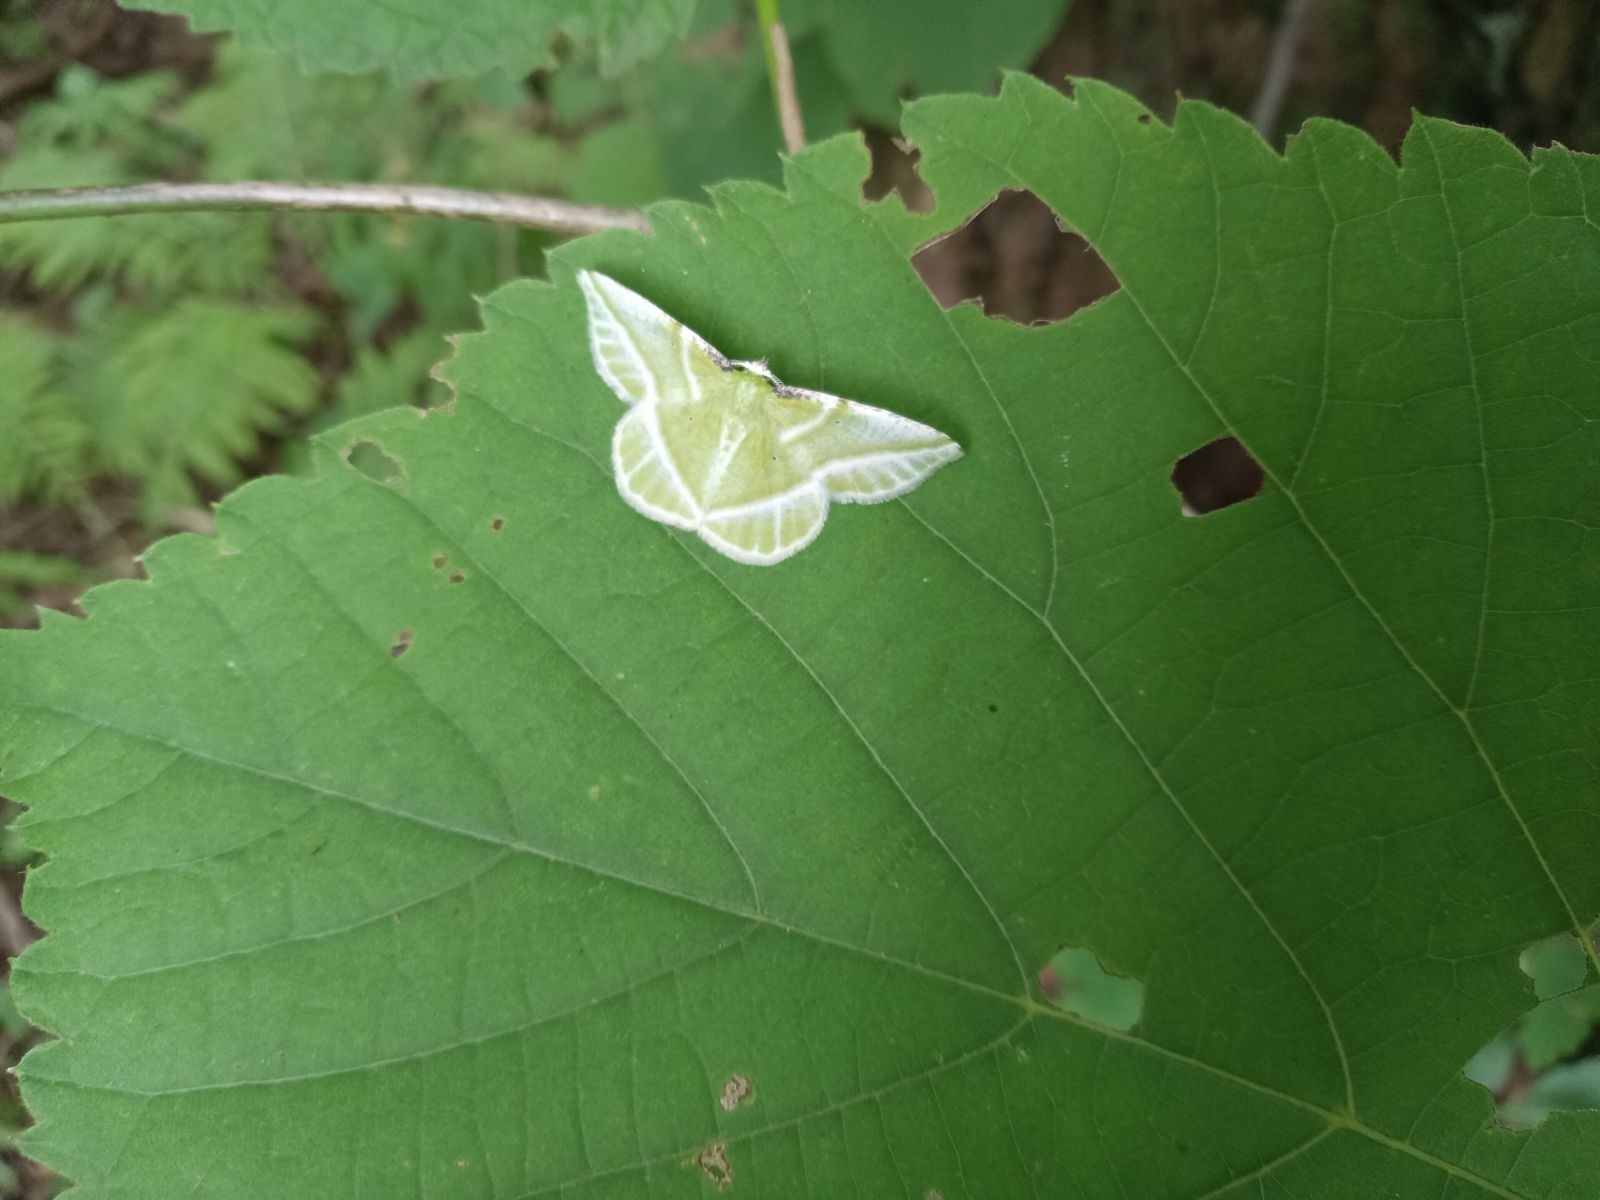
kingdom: Animalia
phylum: Arthropoda
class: Insecta
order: Lepidoptera
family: Geometridae
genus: Dichorda
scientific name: Dichorda iridaria
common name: Showy emerald
